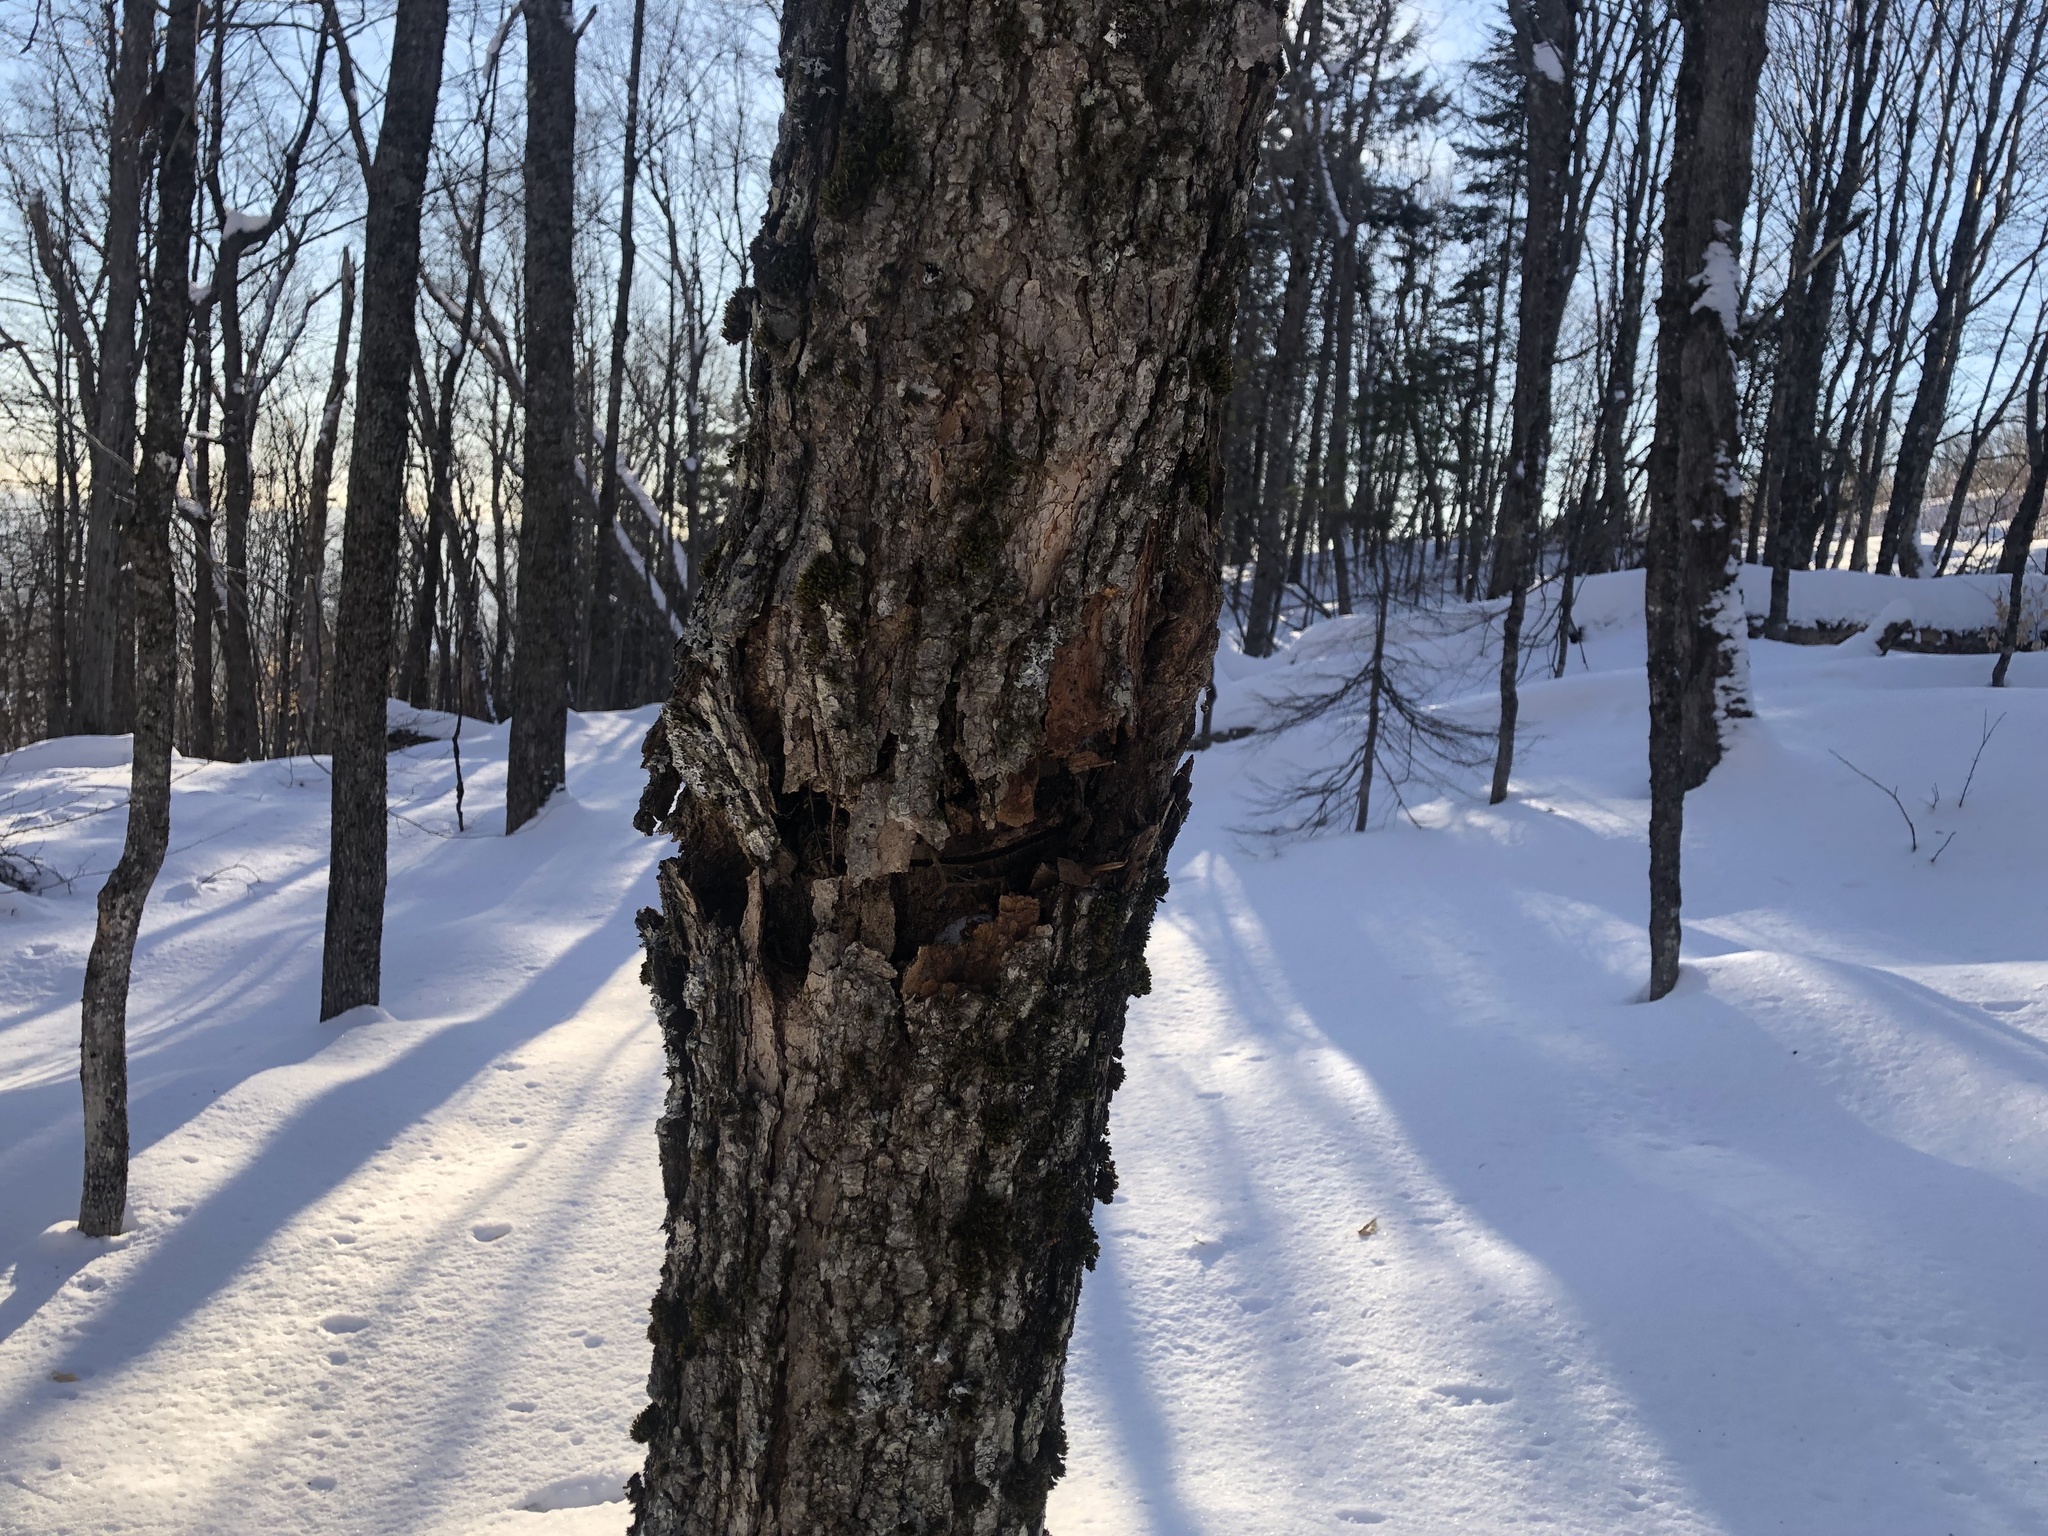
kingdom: Animalia
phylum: Arthropoda
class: Insecta
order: Coleoptera
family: Cerambycidae
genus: Glycobius
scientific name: Glycobius speciosus
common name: Sugar maple borer
